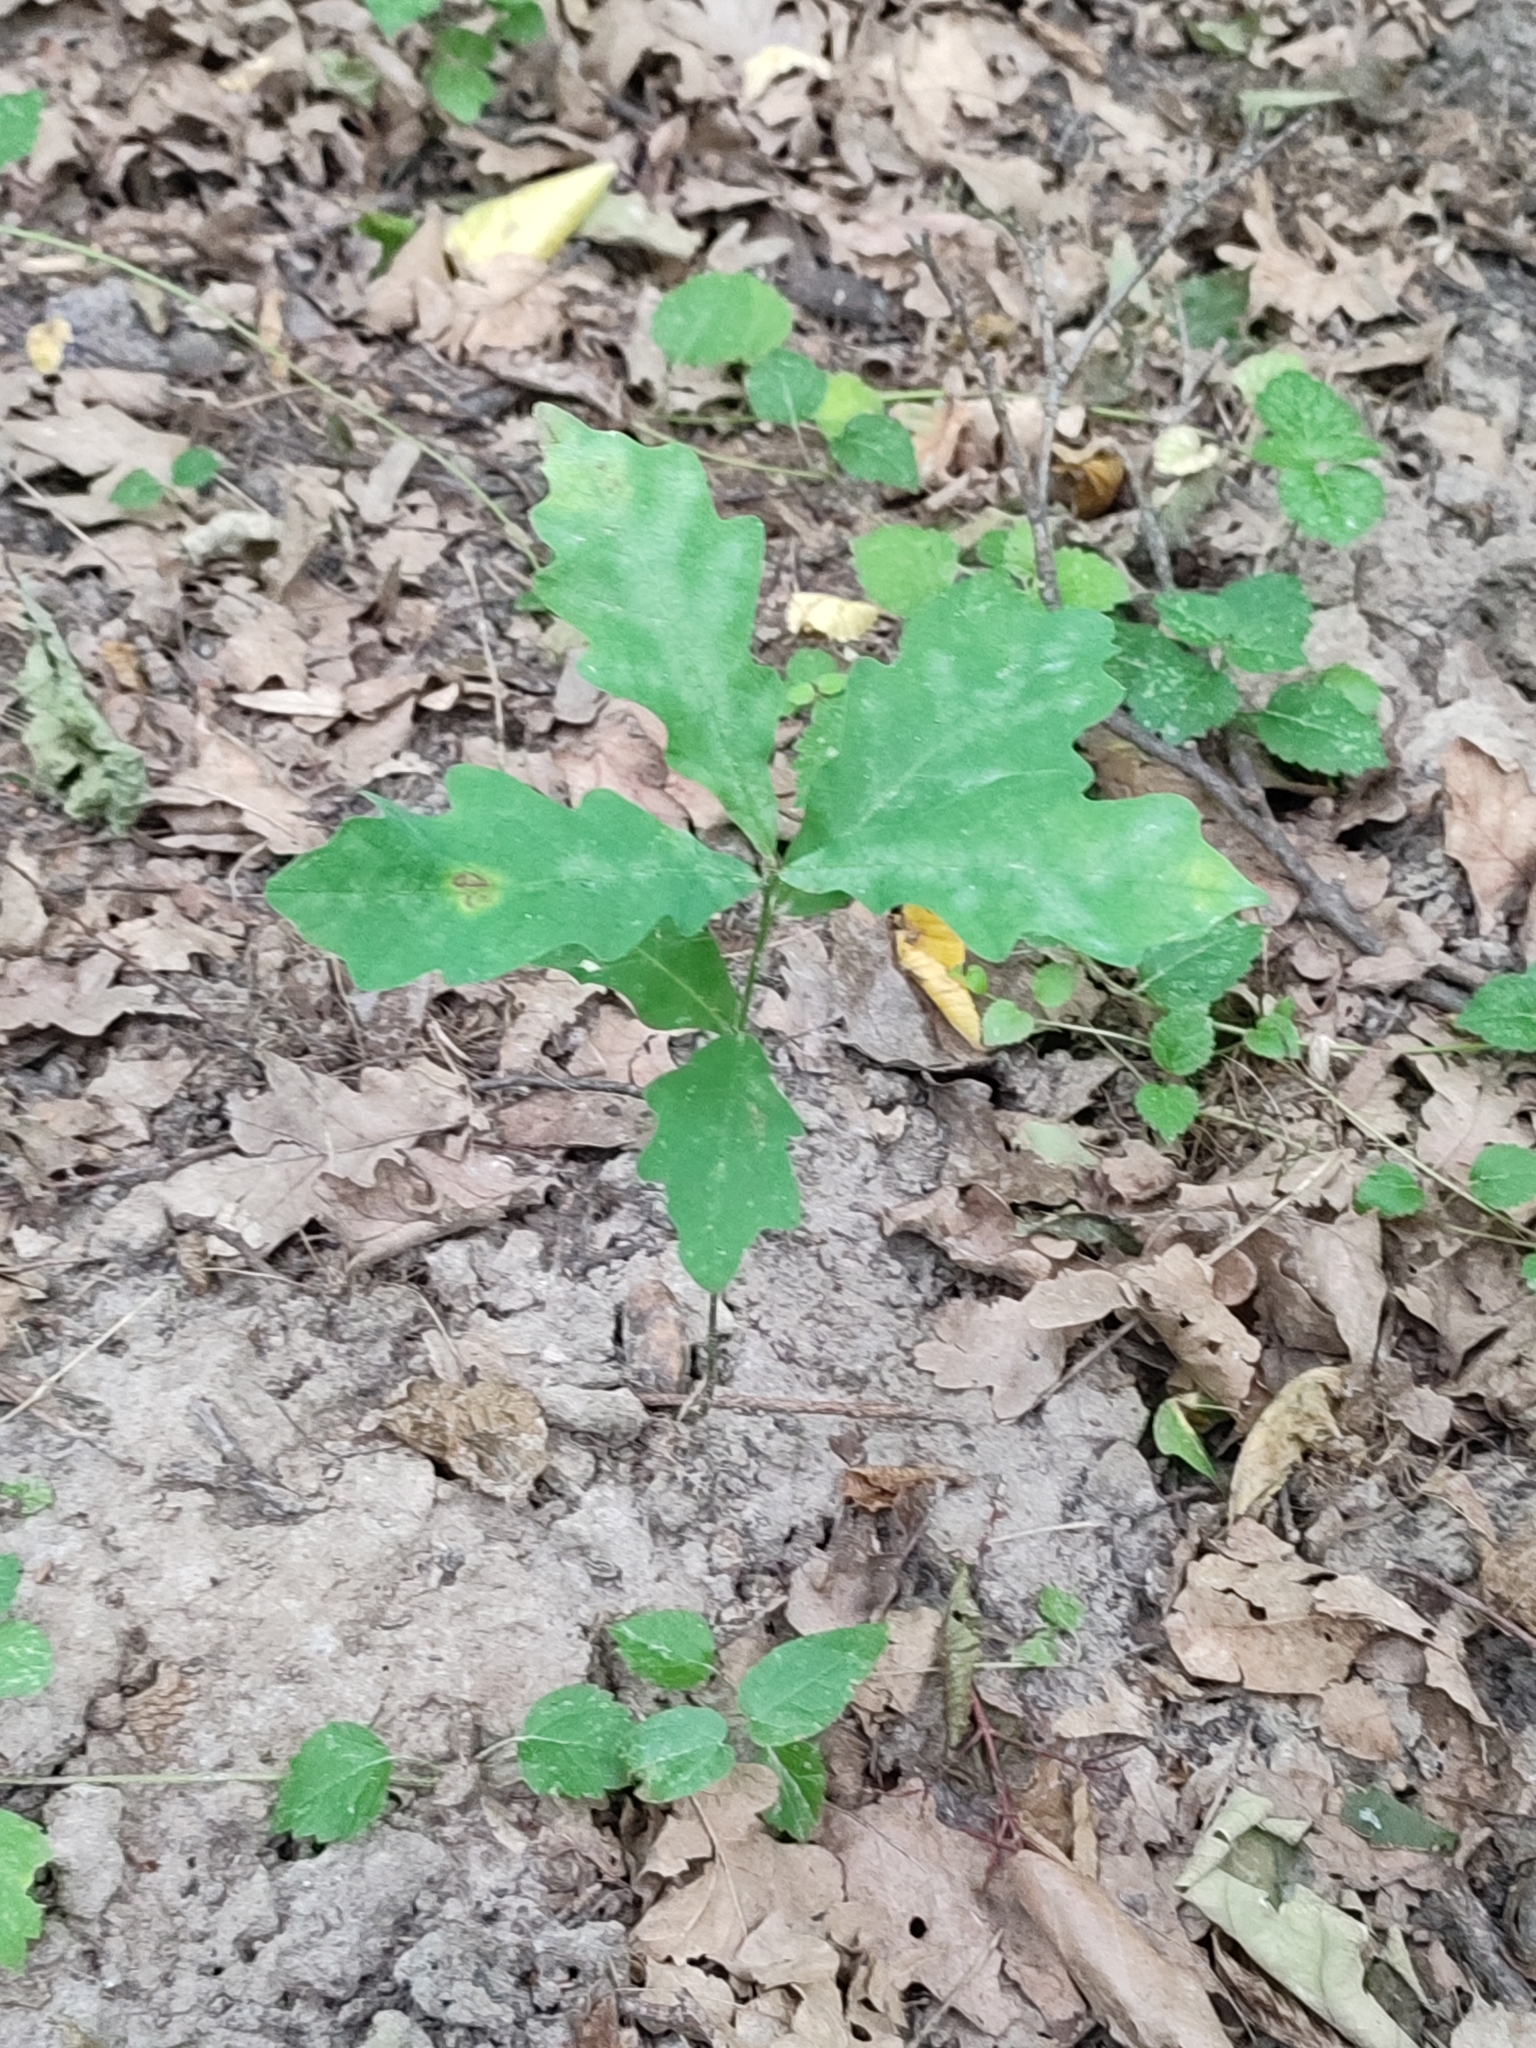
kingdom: Plantae
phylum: Tracheophyta
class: Magnoliopsida
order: Fagales
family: Fagaceae
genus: Quercus
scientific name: Quercus robur
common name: Pedunculate oak
